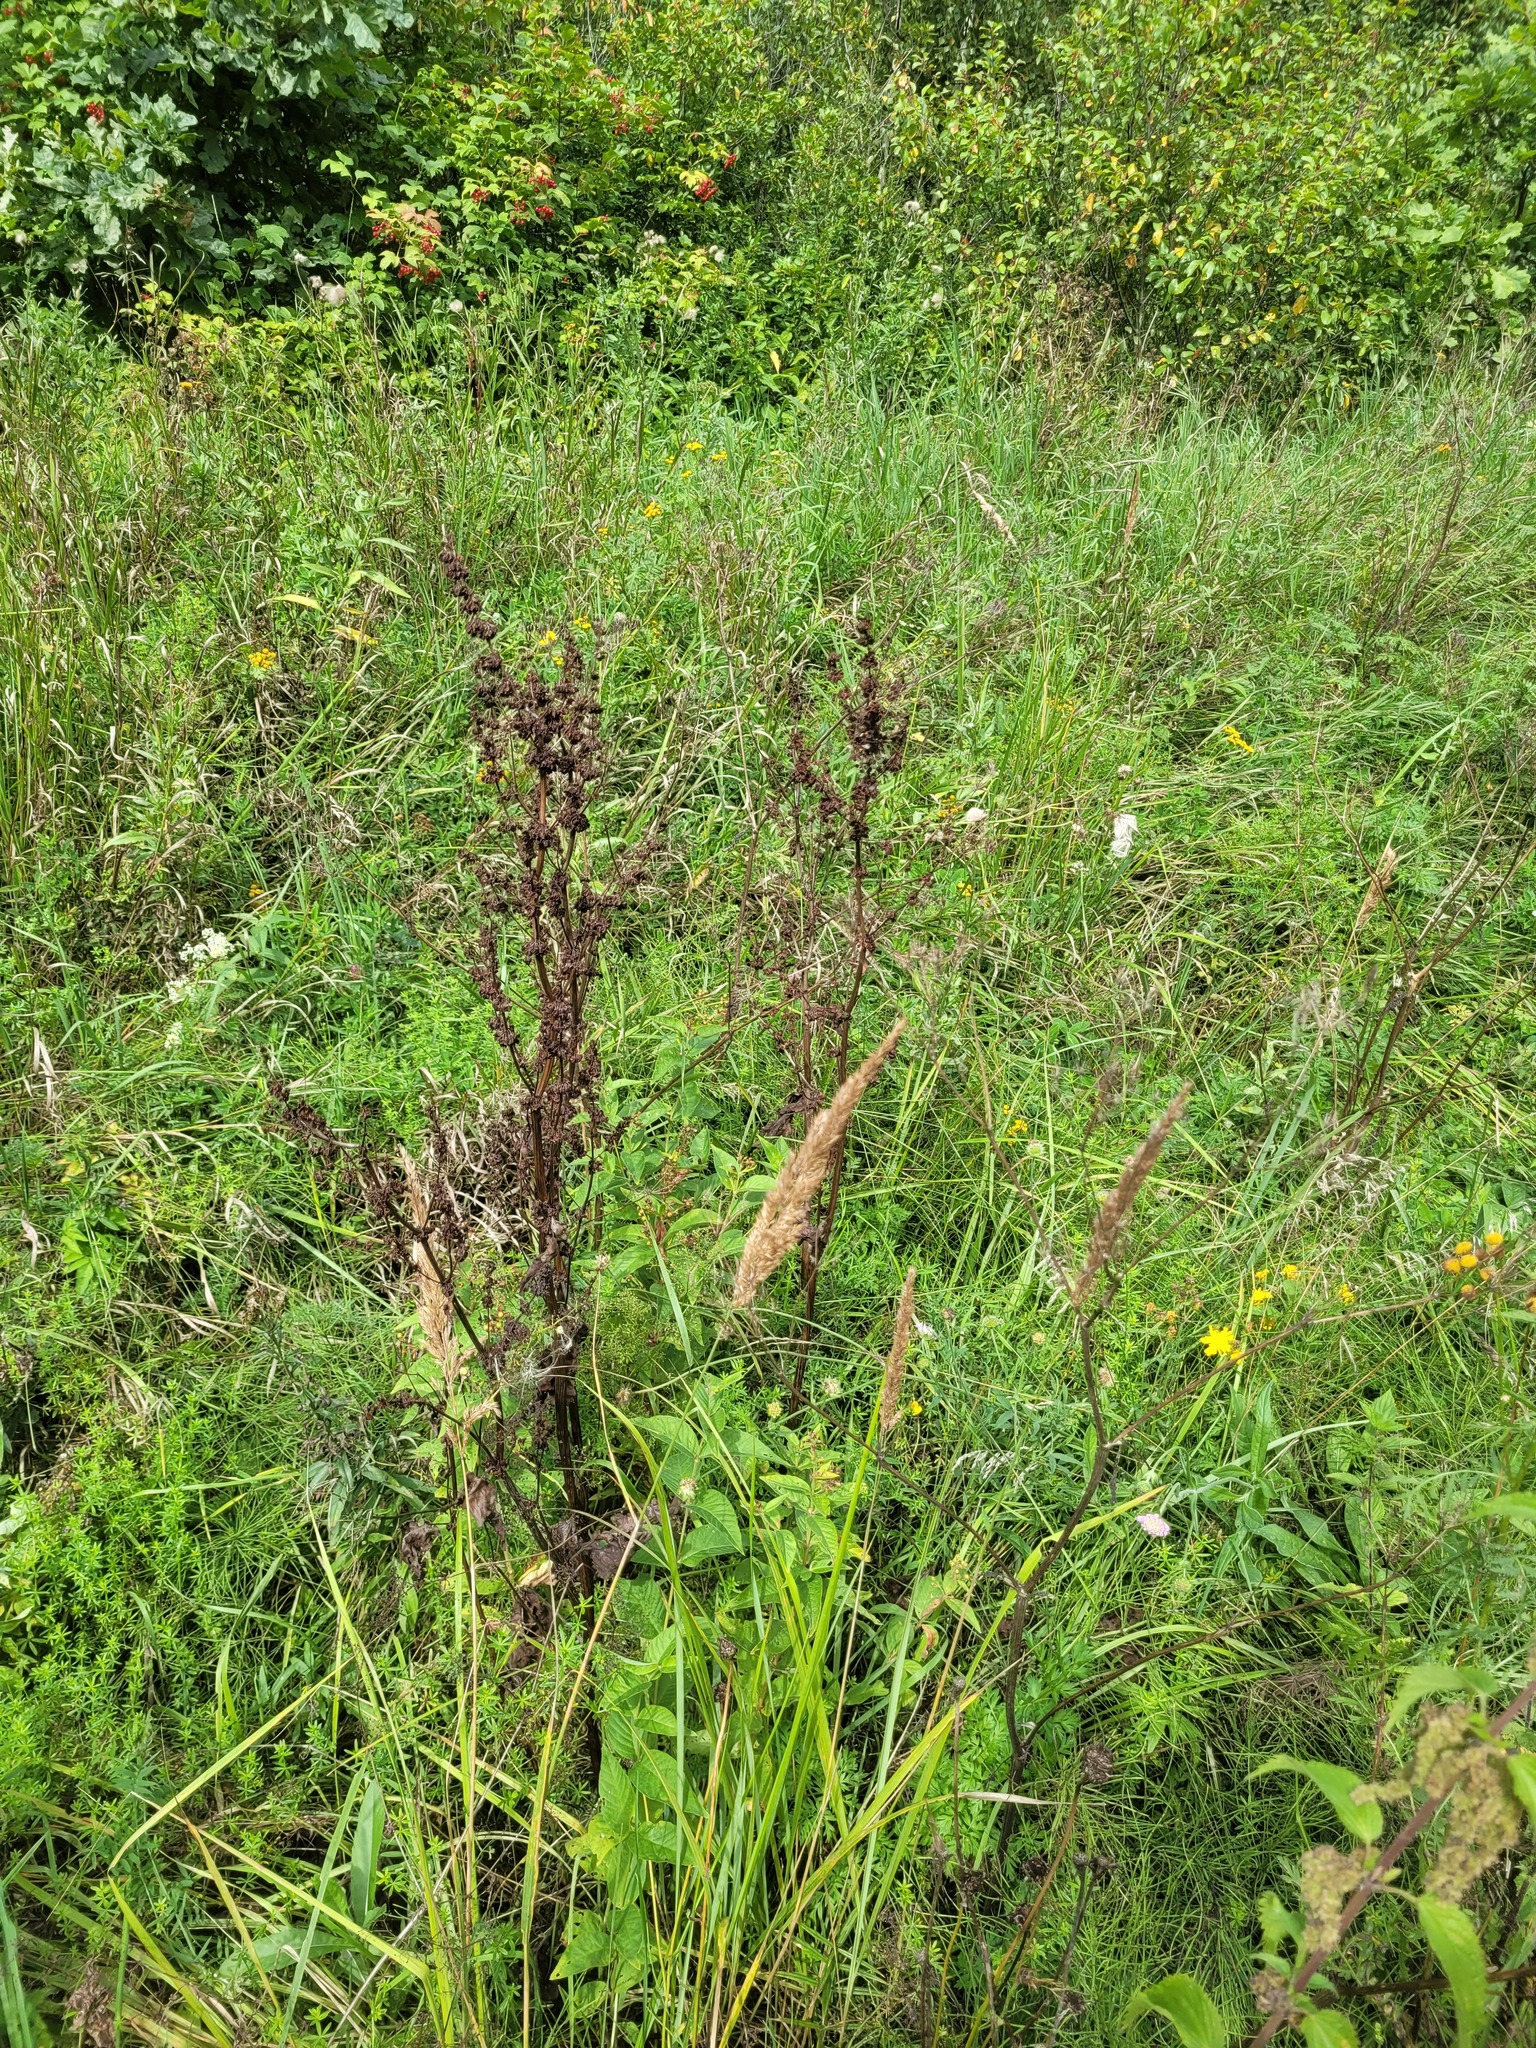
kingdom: Plantae
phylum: Tracheophyta
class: Magnoliopsida
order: Caryophyllales
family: Polygonaceae
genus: Rumex
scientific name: Rumex confertus
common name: Russian dock
